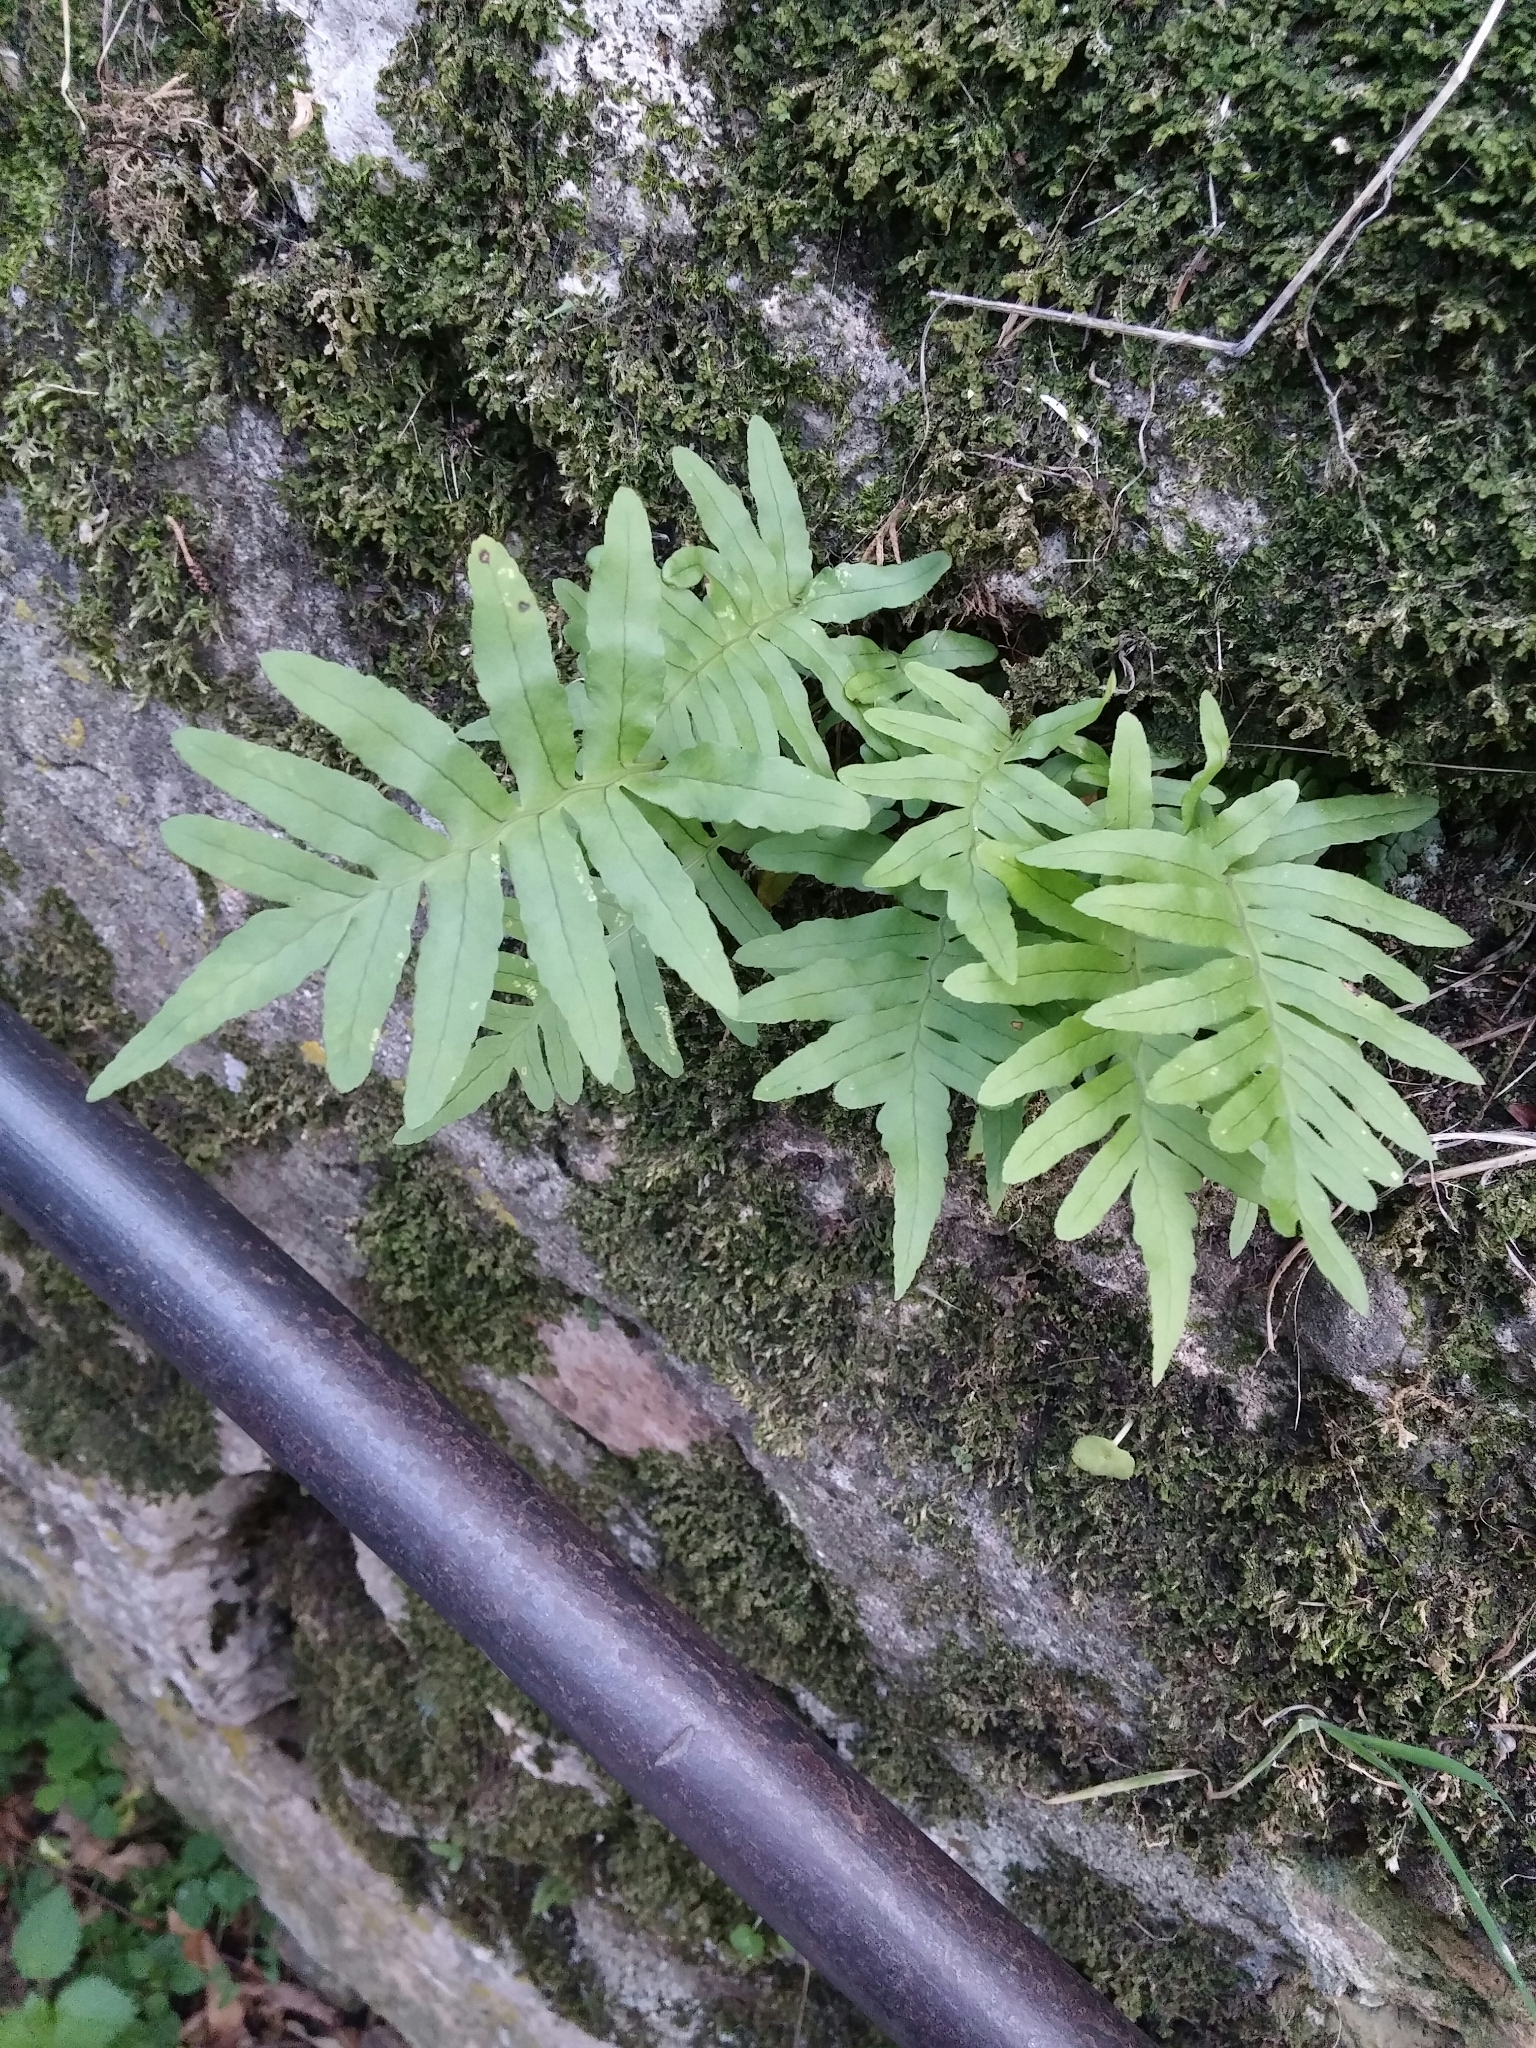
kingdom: Plantae
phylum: Tracheophyta
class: Polypodiopsida
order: Polypodiales
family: Polypodiaceae
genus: Polypodium
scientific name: Polypodium cambricum
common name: Southern polypody
